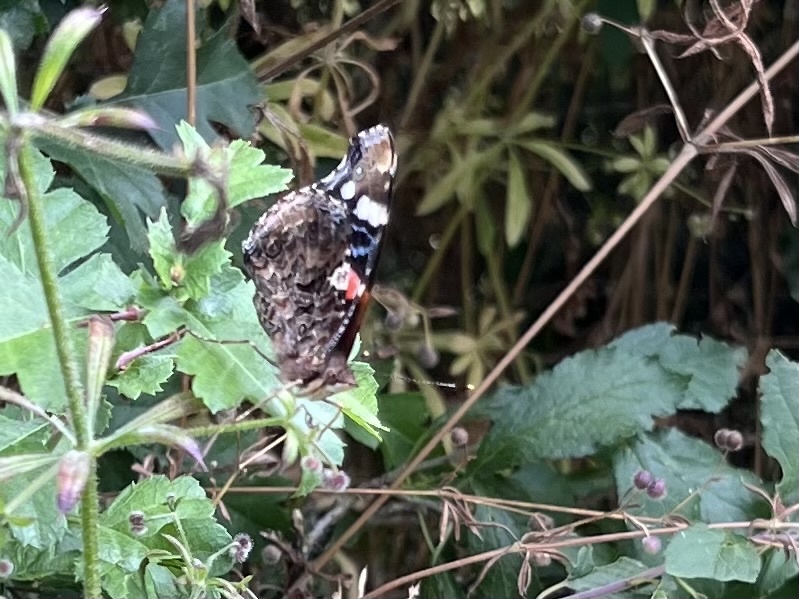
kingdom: Animalia
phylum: Arthropoda
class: Insecta
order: Lepidoptera
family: Nymphalidae
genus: Vanessa
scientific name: Vanessa atalanta
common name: Red admiral
